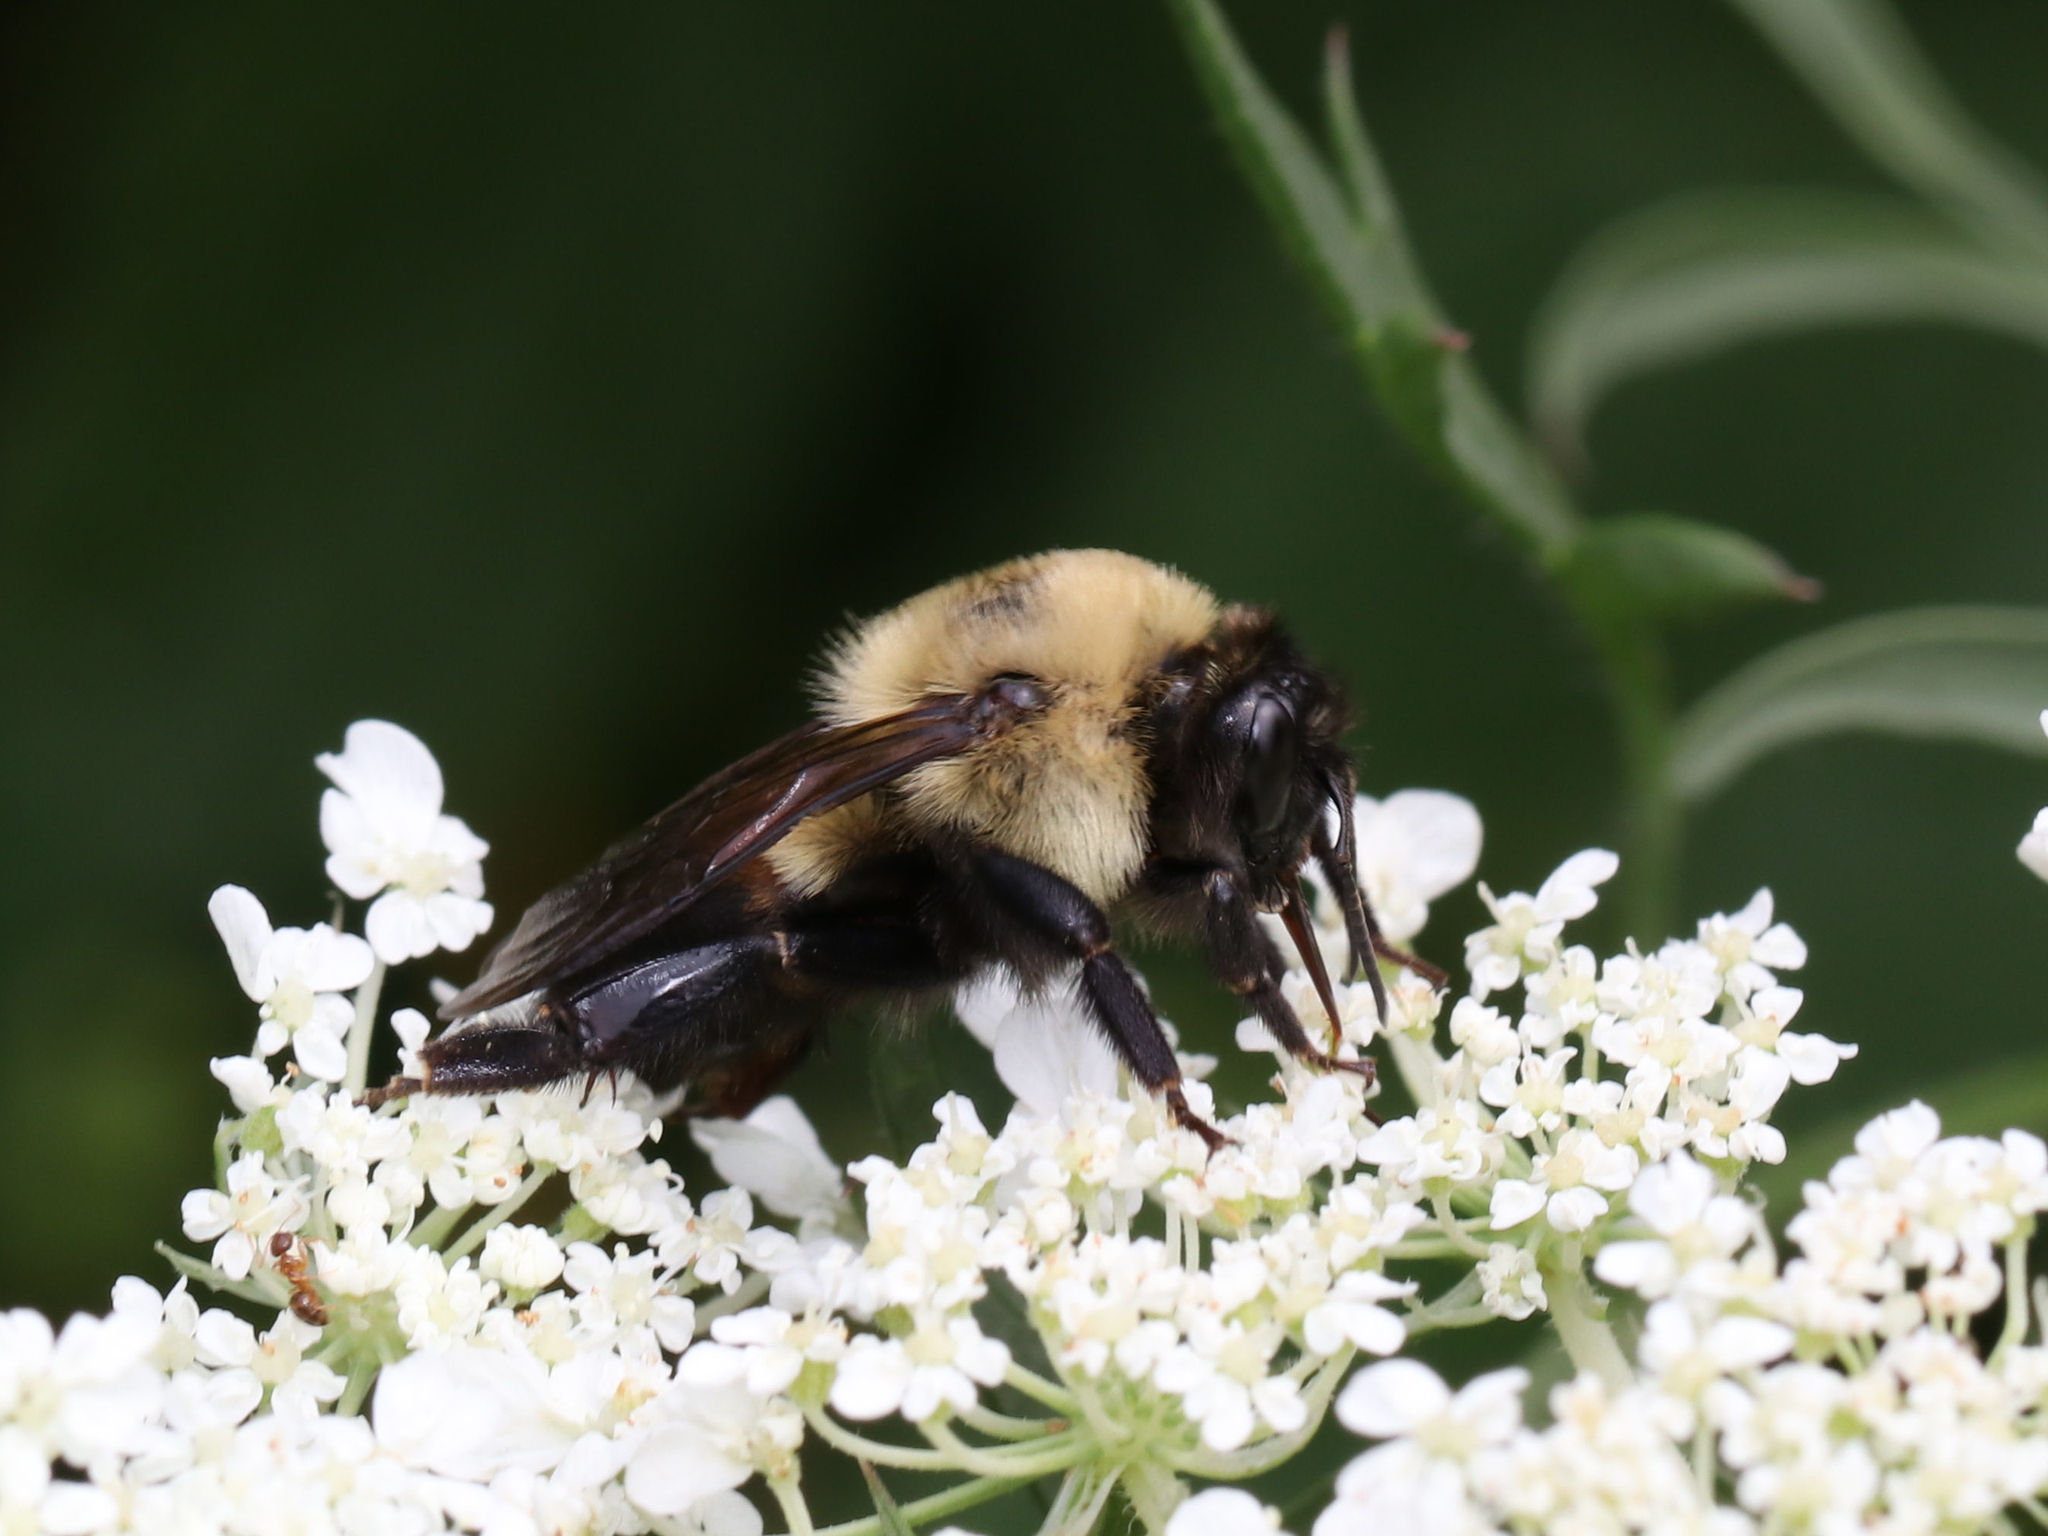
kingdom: Animalia
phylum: Arthropoda
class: Insecta
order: Hymenoptera
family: Apidae
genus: Bombus
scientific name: Bombus griseocollis
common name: Brown-belted bumble bee
